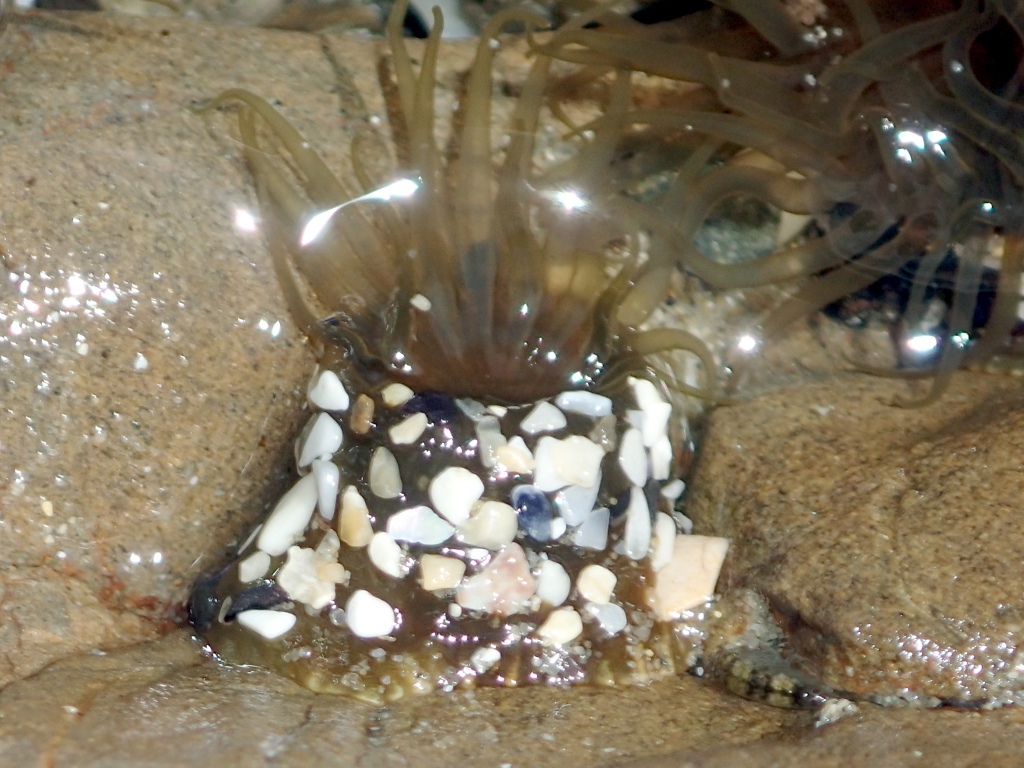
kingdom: Animalia
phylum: Cnidaria
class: Anthozoa
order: Actiniaria
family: Actiniidae
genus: Isactinia
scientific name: Isactinia olivacea
